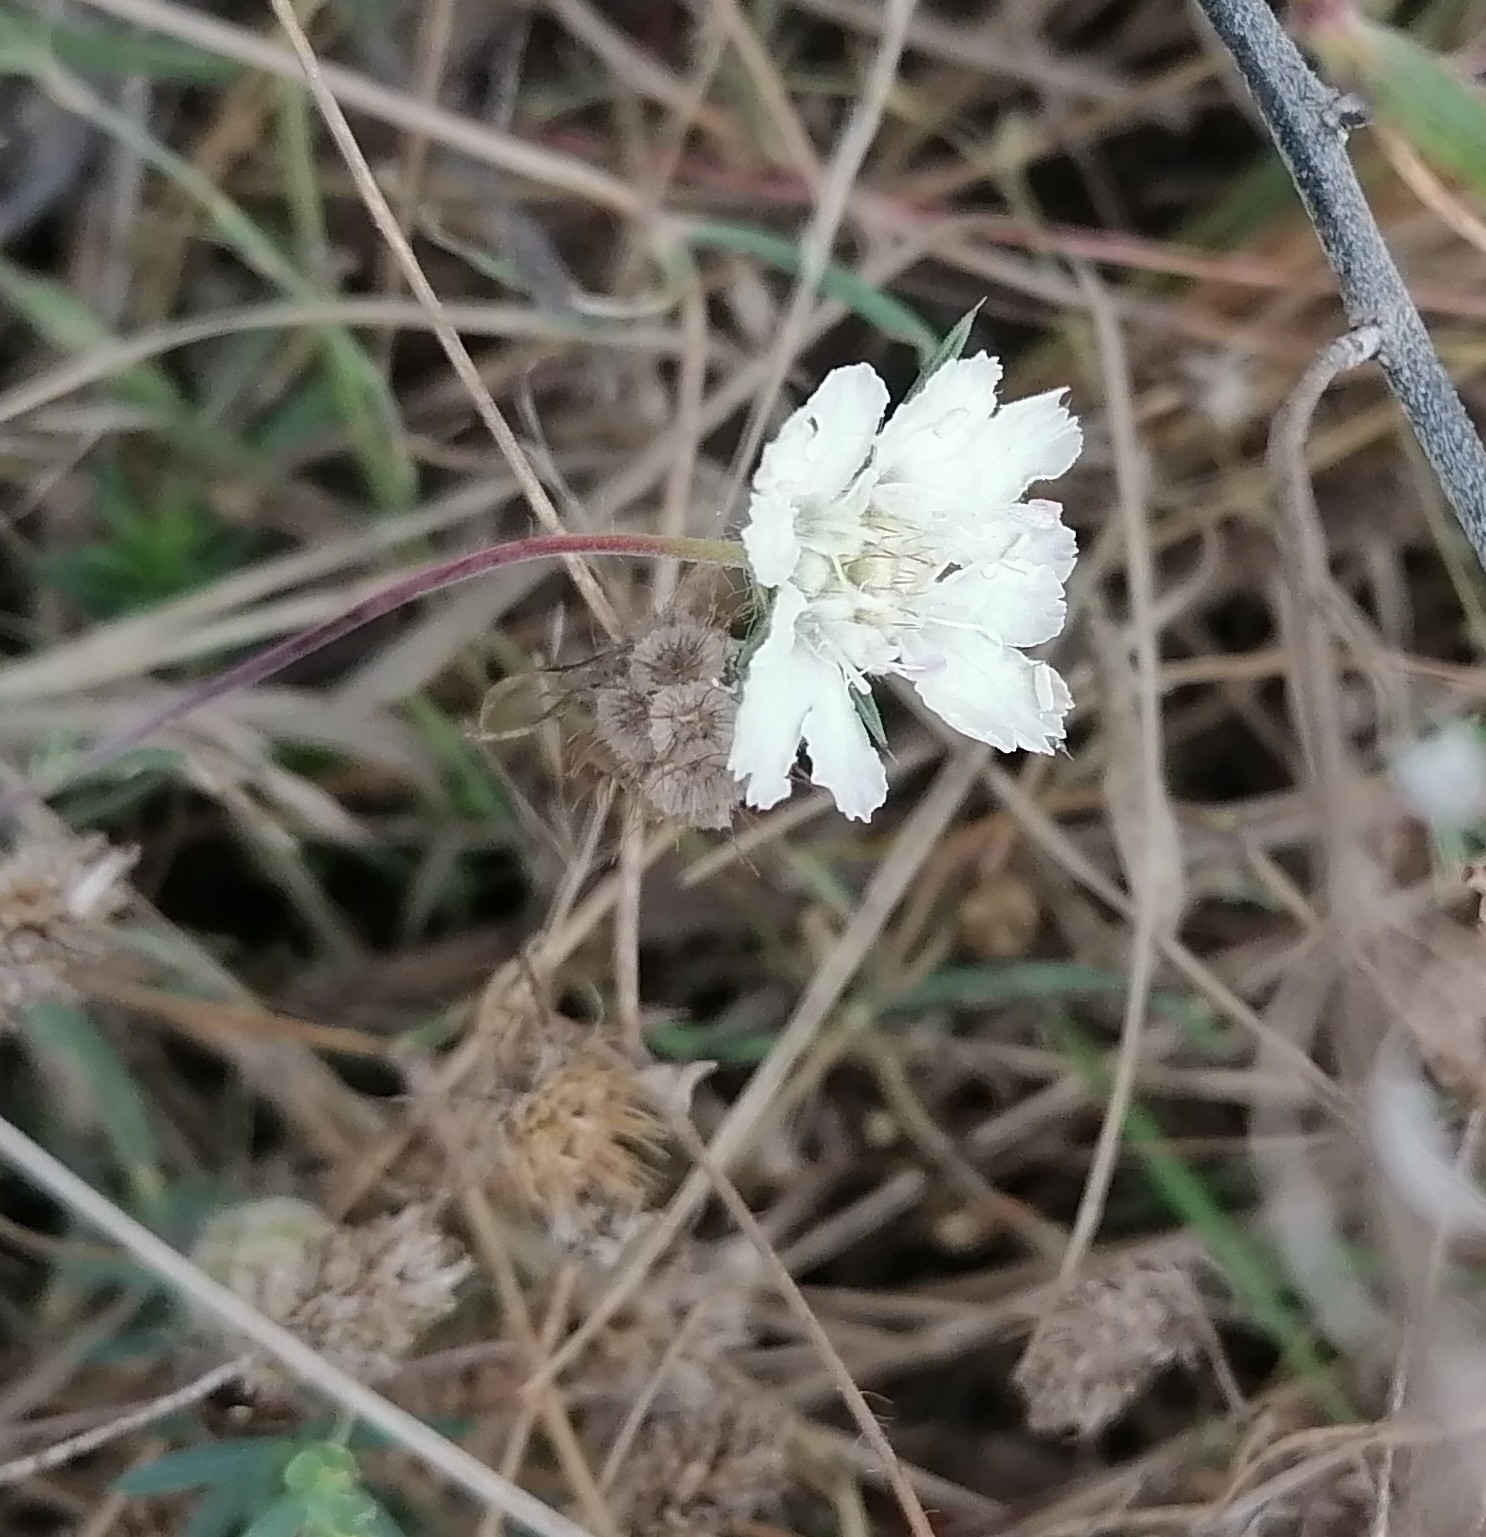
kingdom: Plantae
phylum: Tracheophyta
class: Magnoliopsida
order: Dipsacales
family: Caprifoliaceae
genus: Lomelosia
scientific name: Lomelosia argentea
